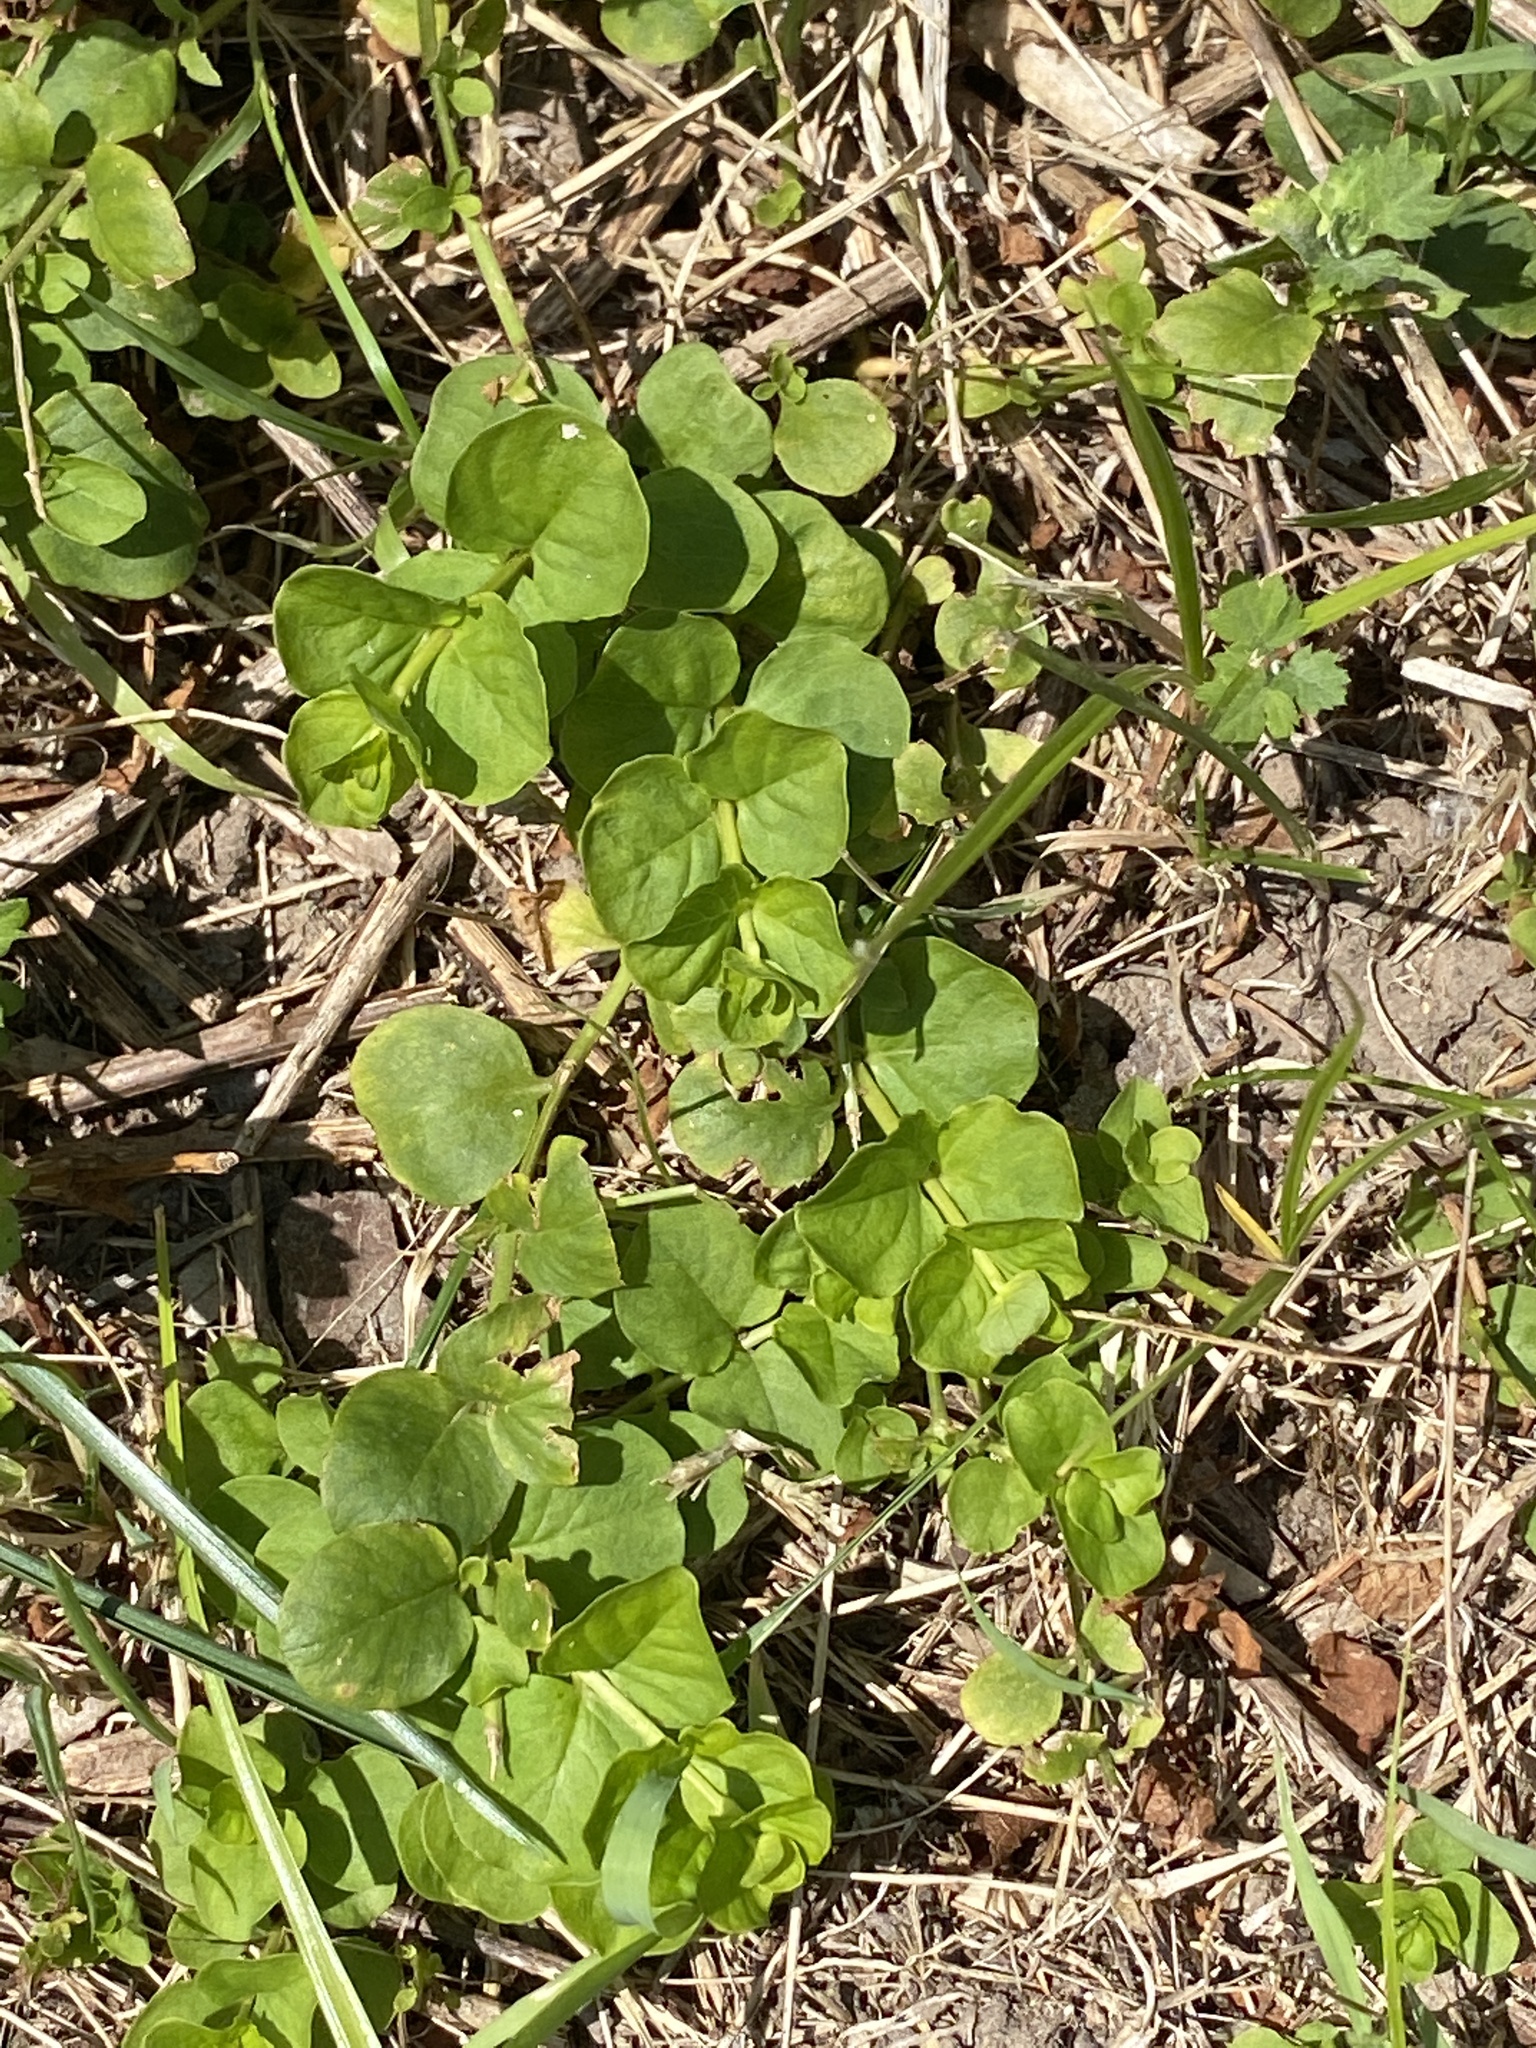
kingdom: Plantae
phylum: Tracheophyta
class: Magnoliopsida
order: Ericales
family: Primulaceae
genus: Lysimachia
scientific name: Lysimachia nummularia
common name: Moneywort
